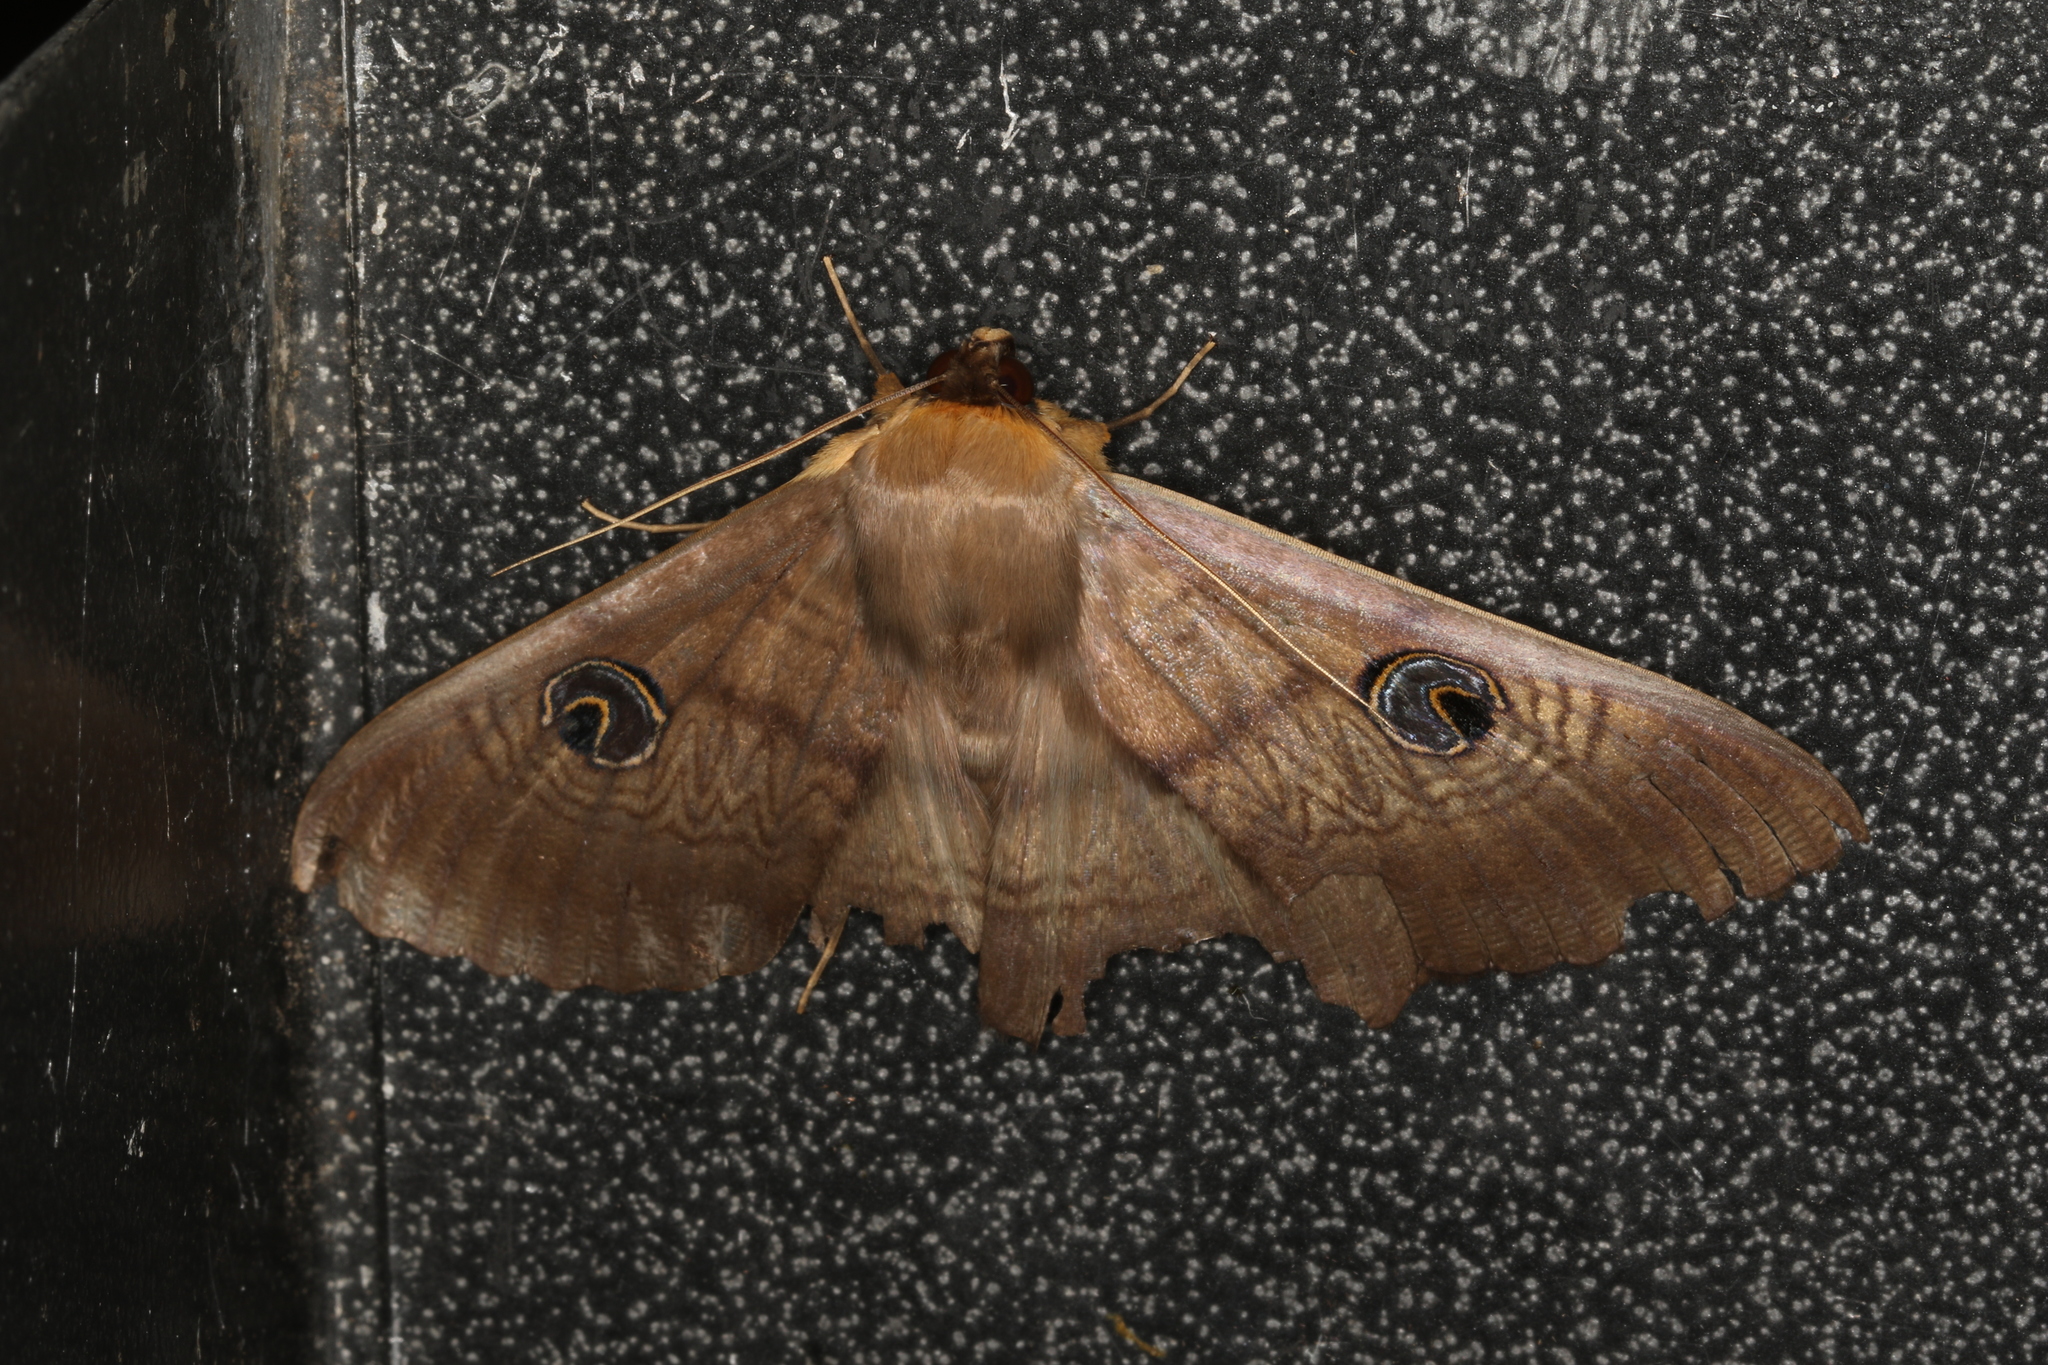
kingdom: Animalia
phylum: Arthropoda
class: Insecta
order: Lepidoptera
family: Erebidae
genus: Dasypodia
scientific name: Dasypodia selenophora
